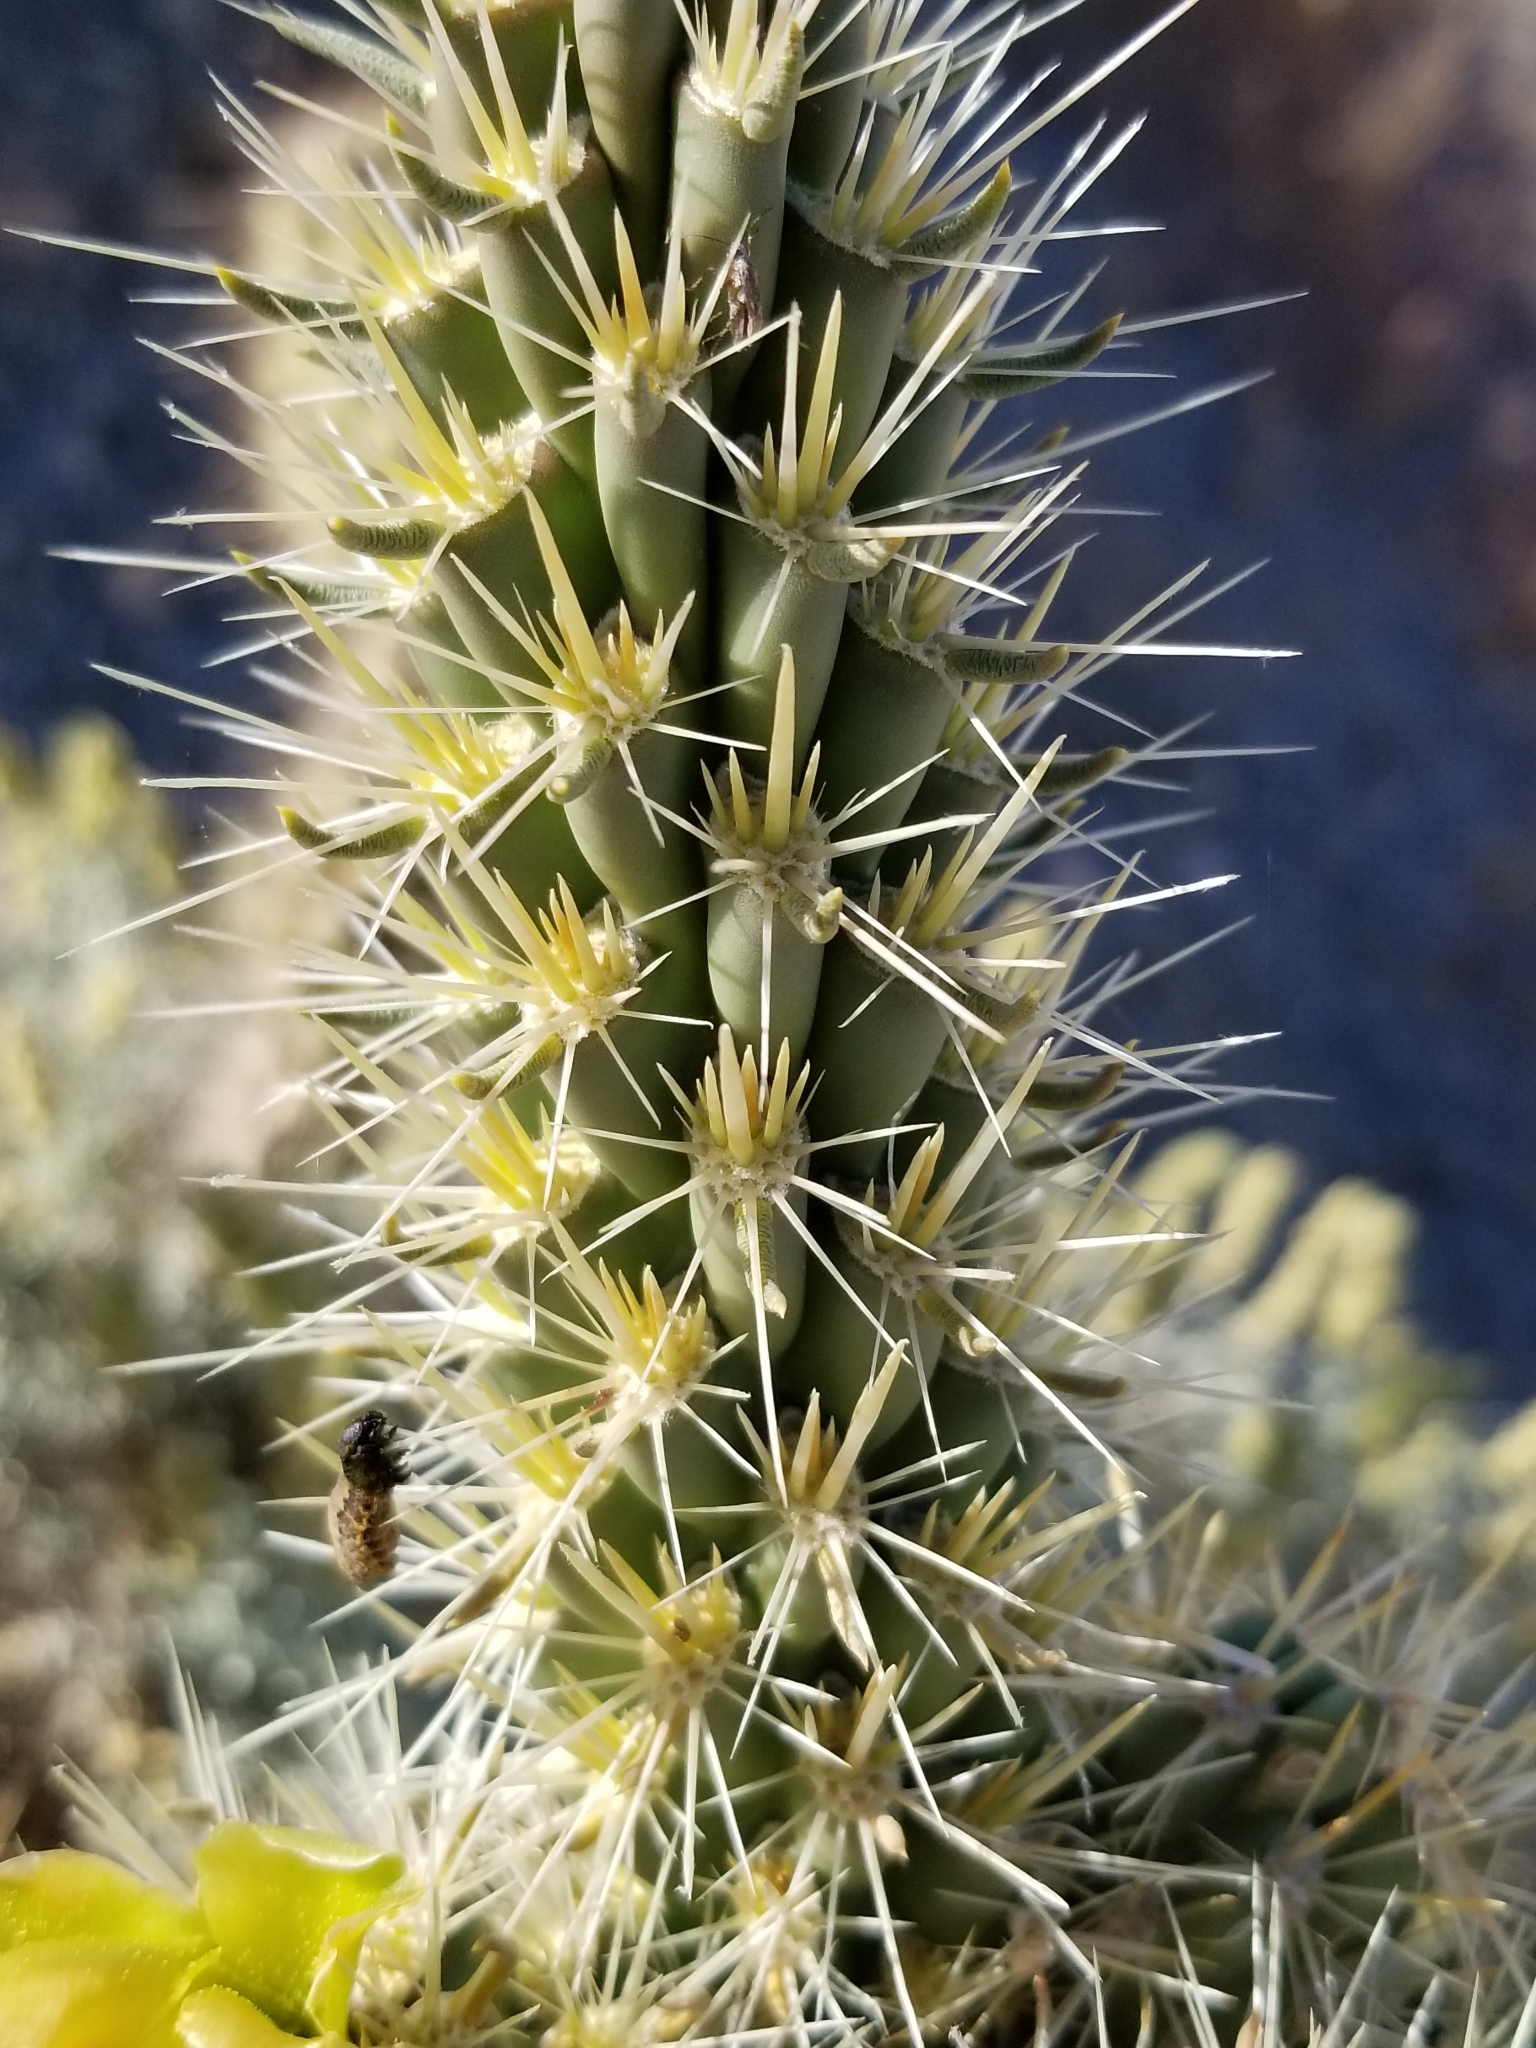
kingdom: Plantae
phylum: Tracheophyta
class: Magnoliopsida
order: Caryophyllales
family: Cactaceae
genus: Cylindropuntia
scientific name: Cylindropuntia ganderi
